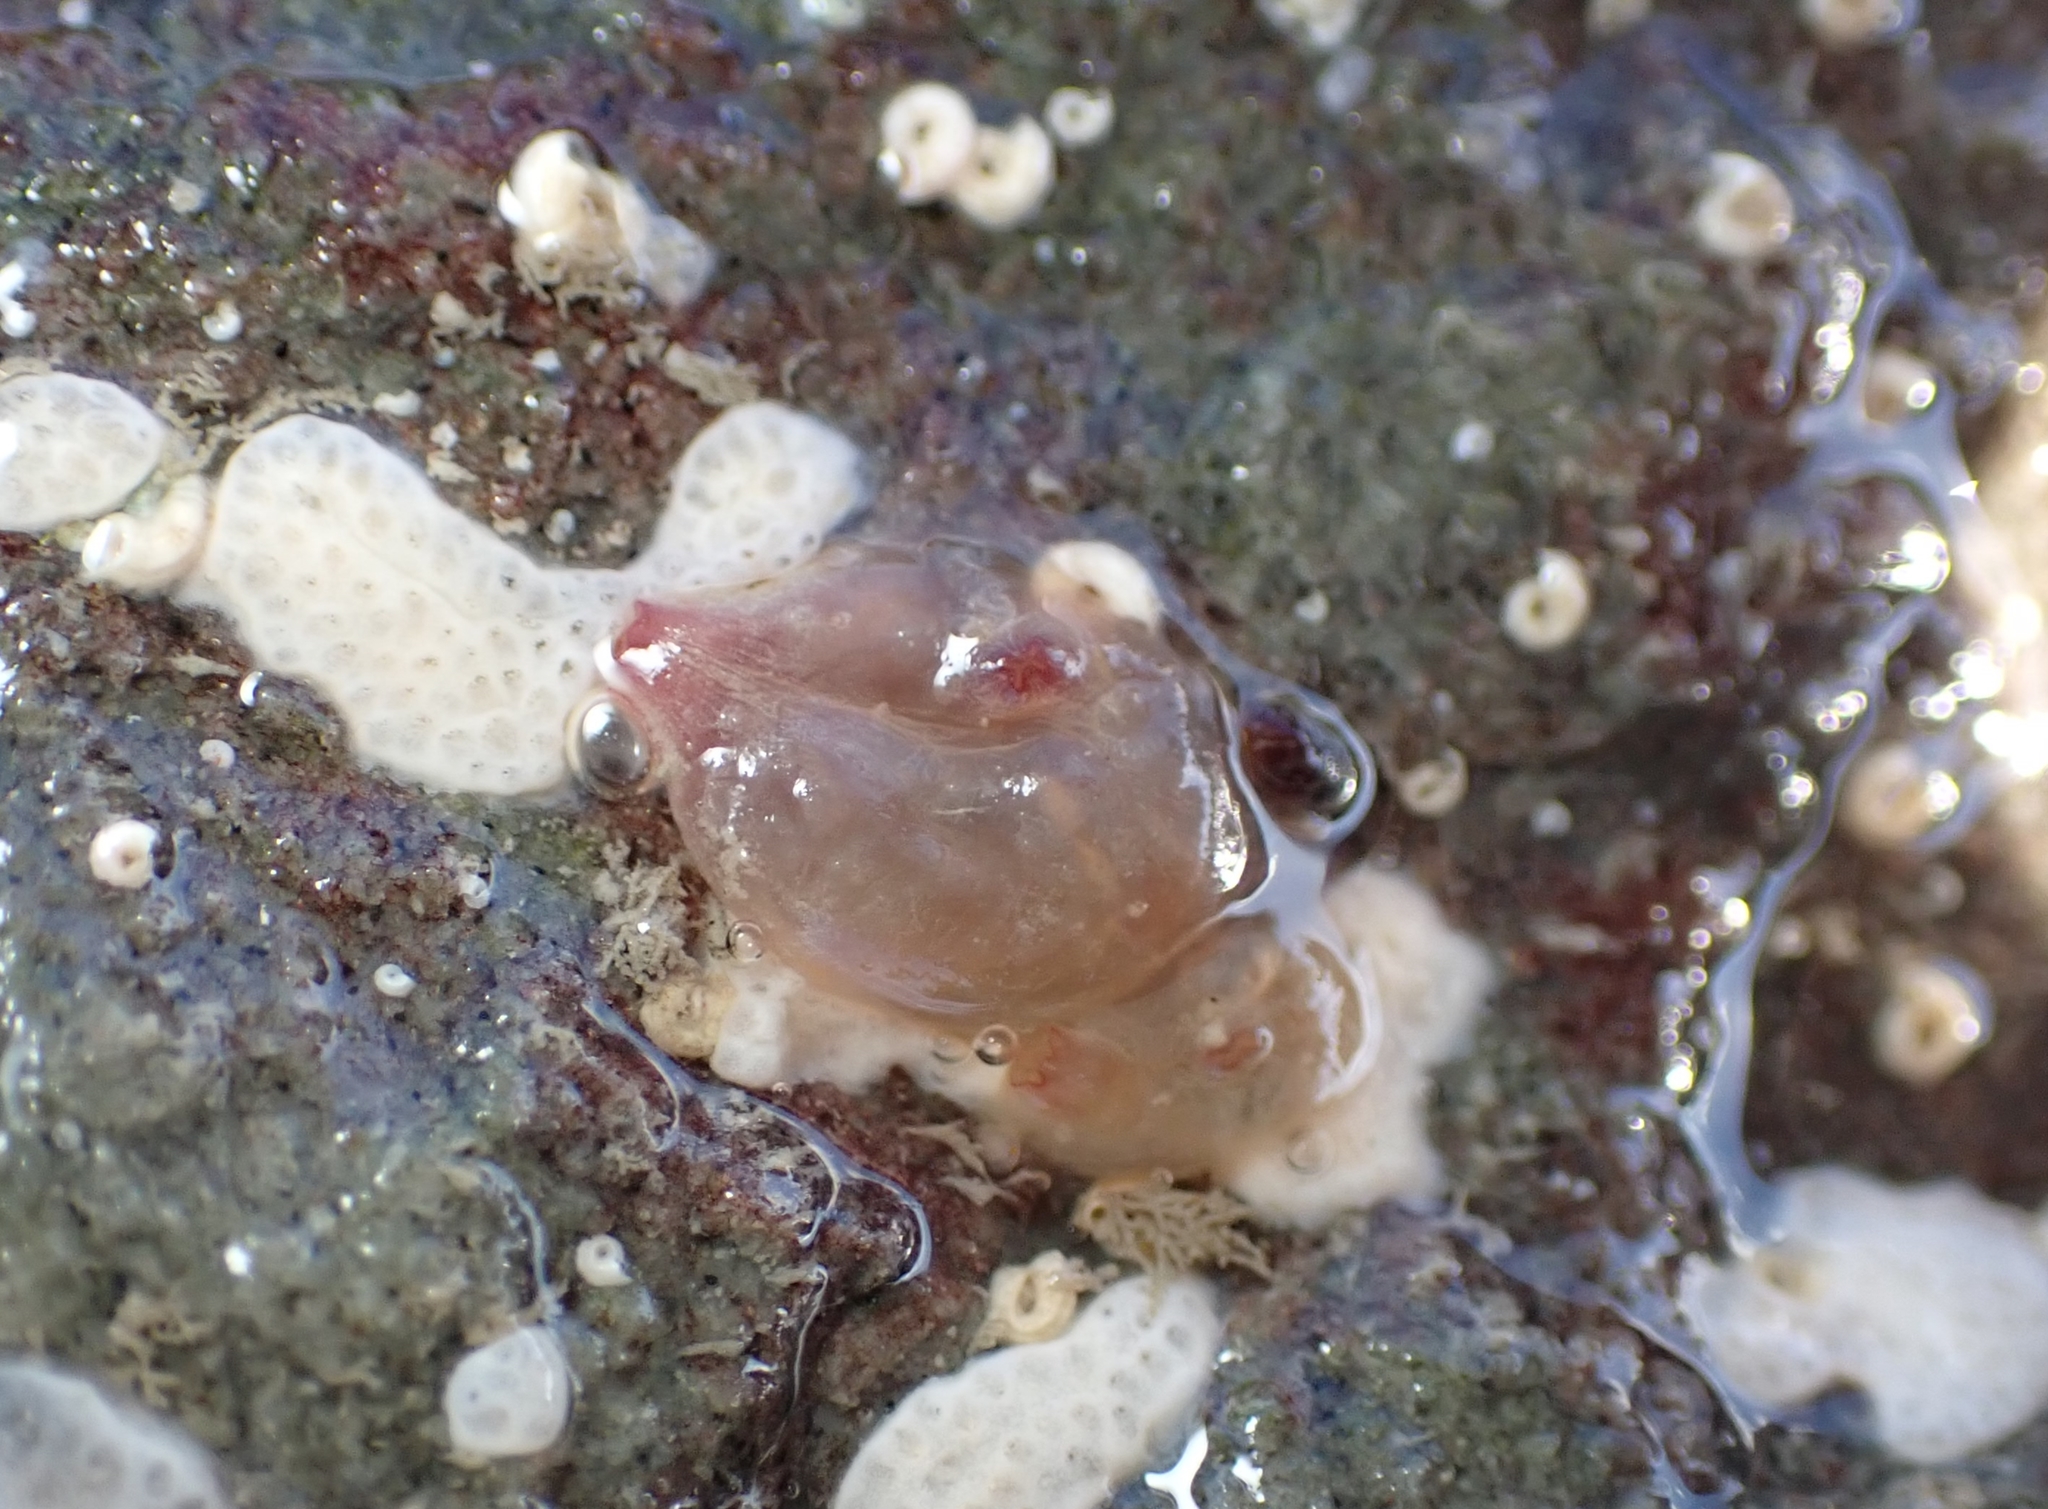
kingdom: Animalia
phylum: Chordata
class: Ascidiacea
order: Phlebobranchia
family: Corellidae
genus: Corella
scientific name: Corella eumyota
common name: Orange-tipped sea squirt
